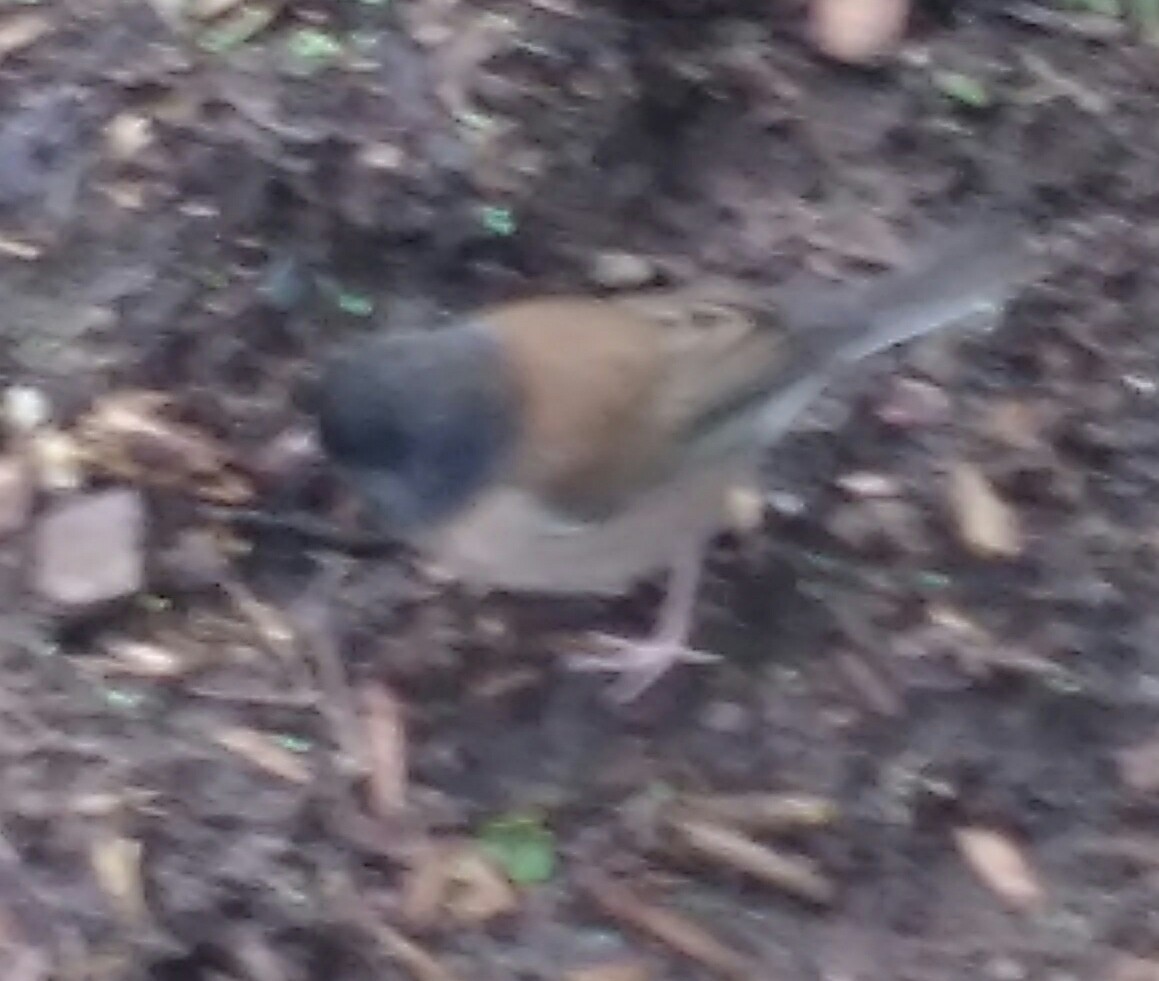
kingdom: Animalia
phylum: Chordata
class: Aves
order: Passeriformes
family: Passerellidae
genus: Junco
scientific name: Junco hyemalis
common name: Dark-eyed junco
